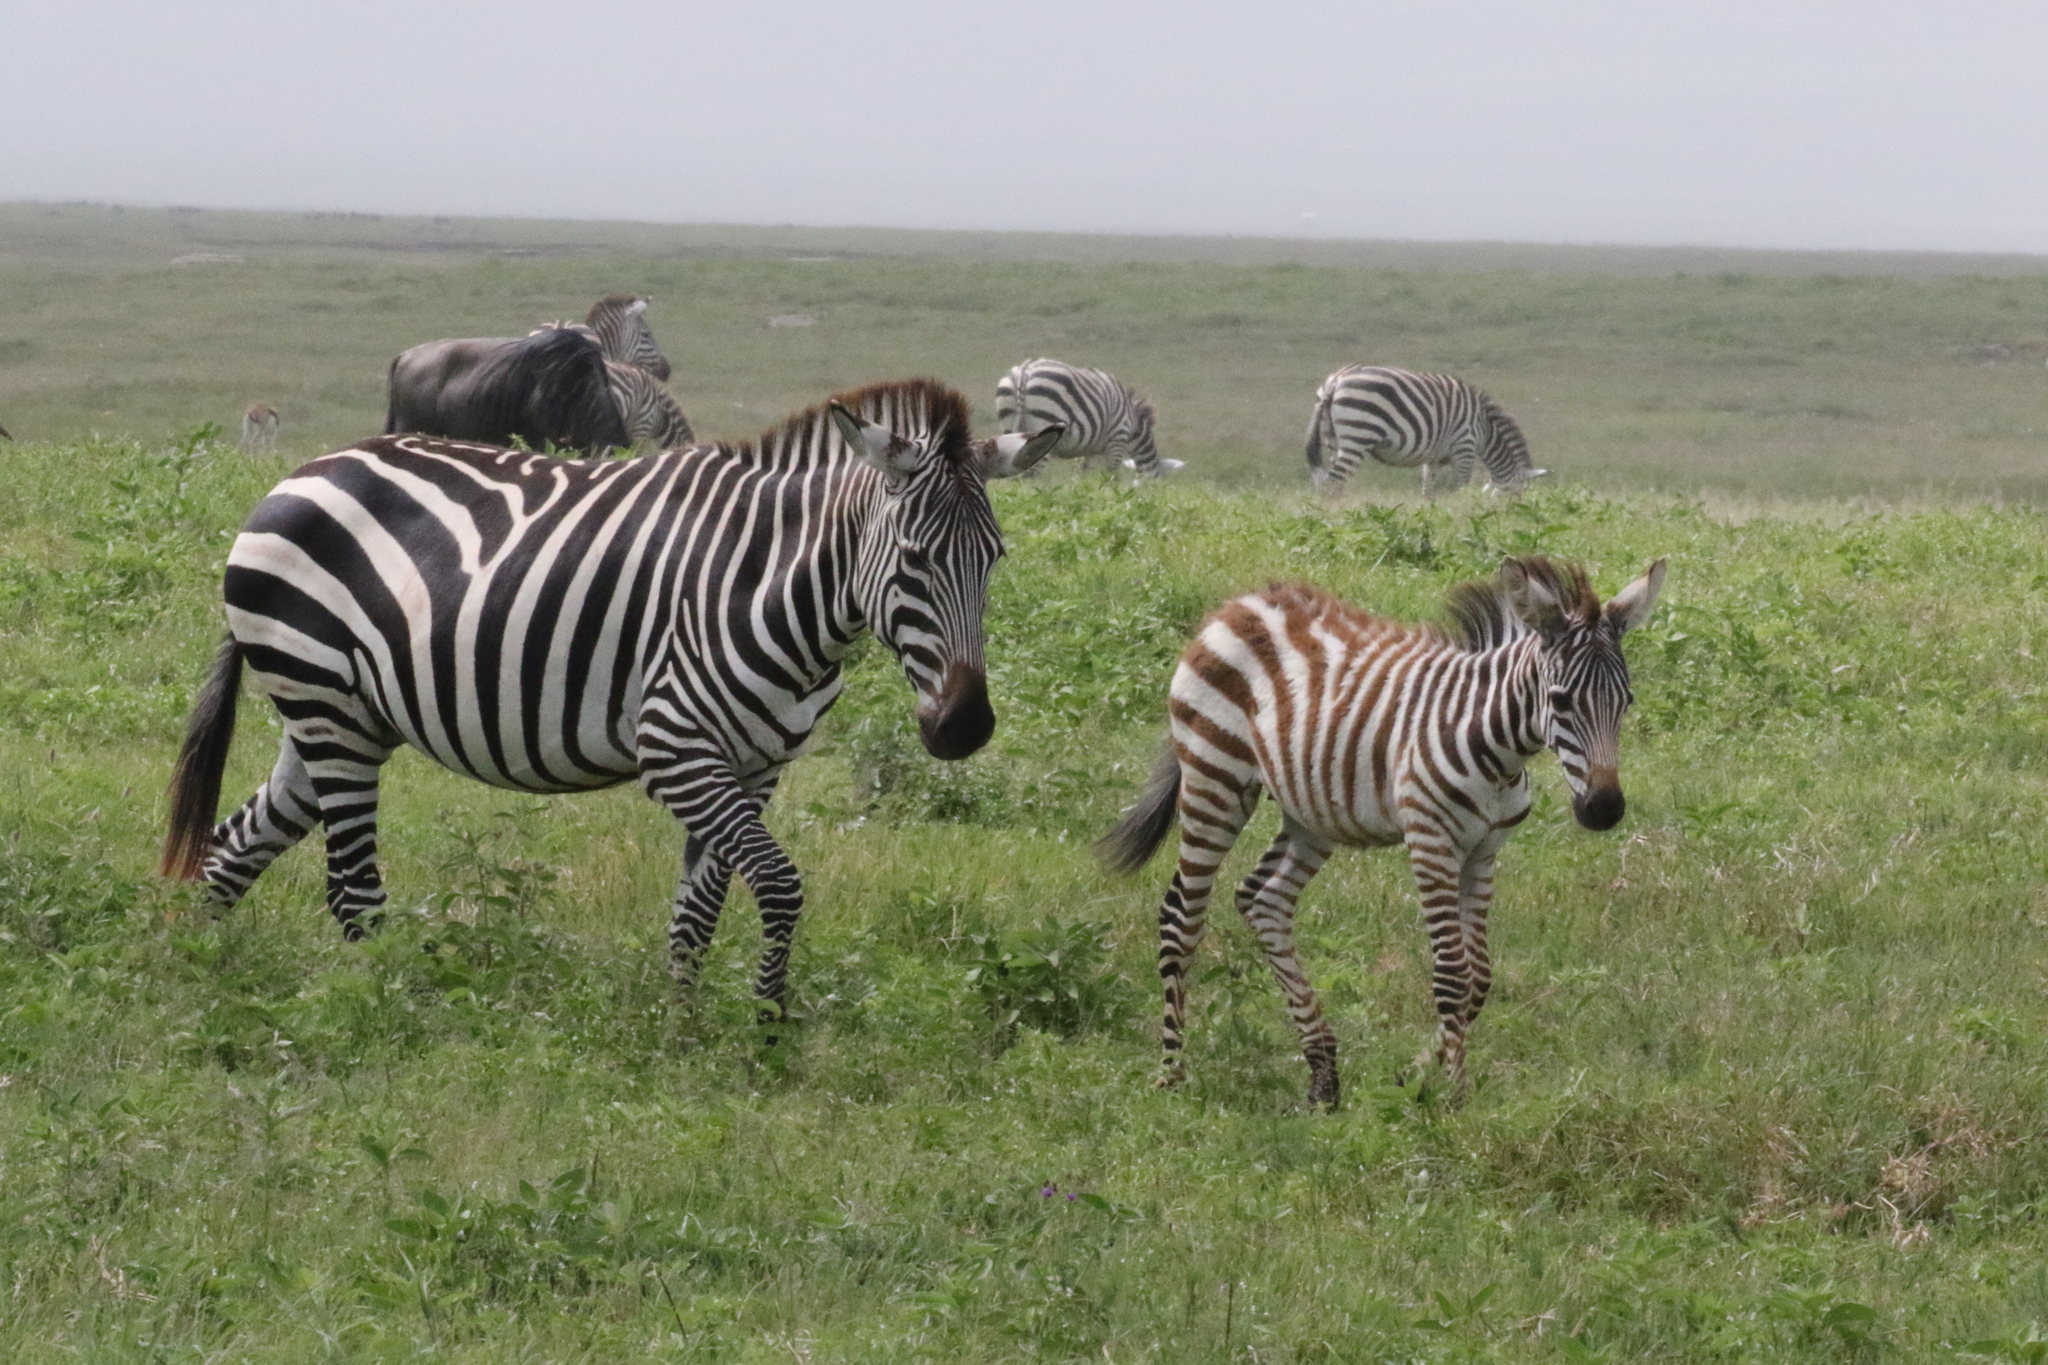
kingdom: Animalia
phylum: Chordata
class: Mammalia
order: Perissodactyla
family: Equidae
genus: Equus
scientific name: Equus quagga
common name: Plains zebra
